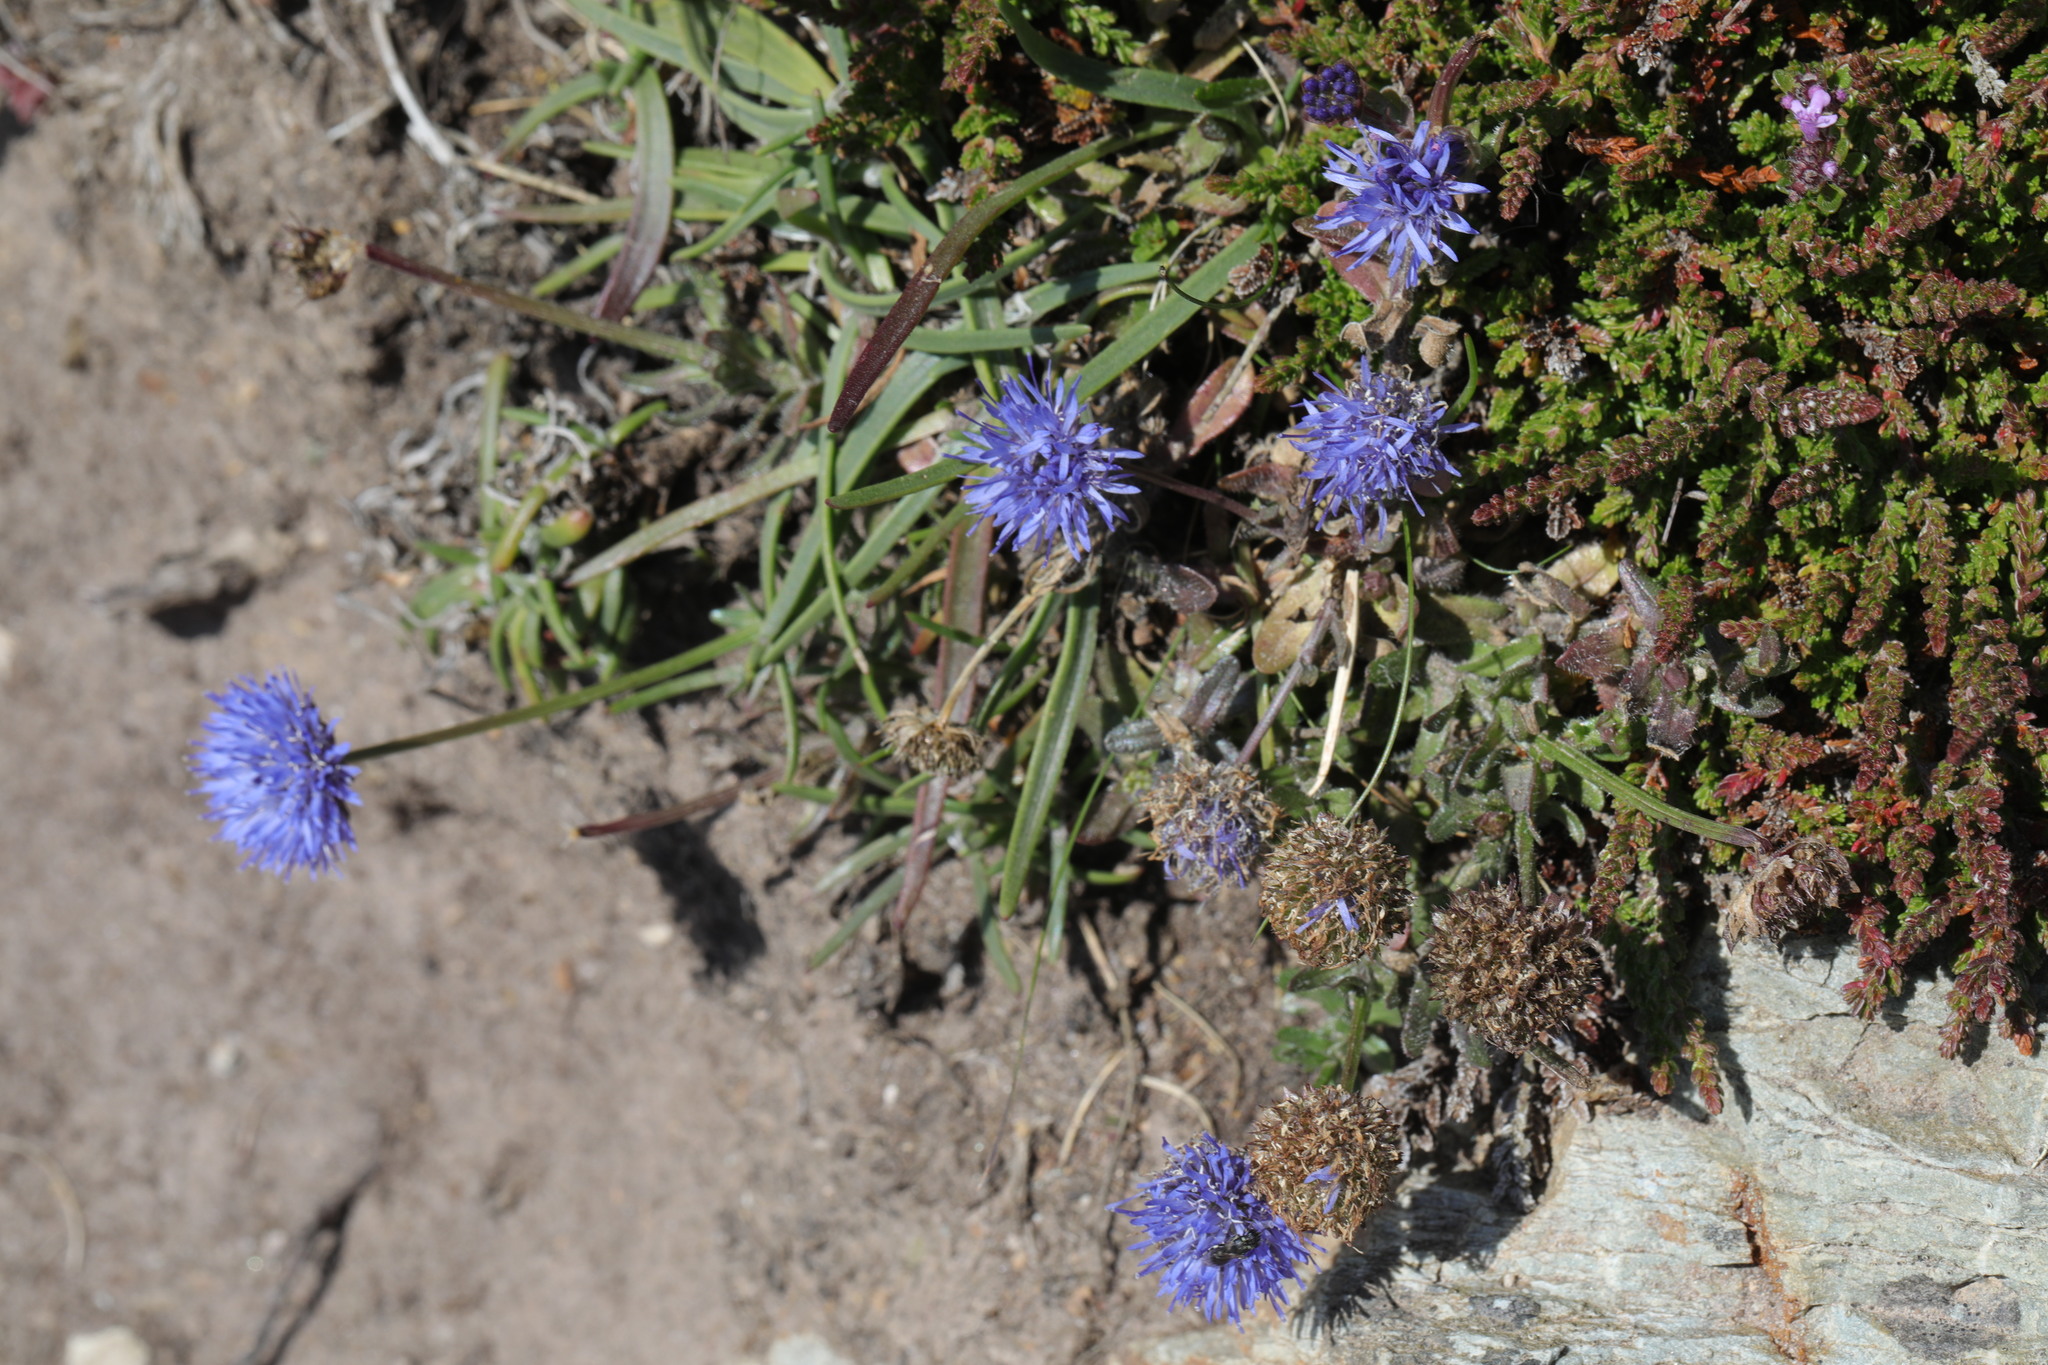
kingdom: Plantae
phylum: Tracheophyta
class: Magnoliopsida
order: Asterales
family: Campanulaceae
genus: Jasione
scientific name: Jasione montana
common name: Sheep's-bit
